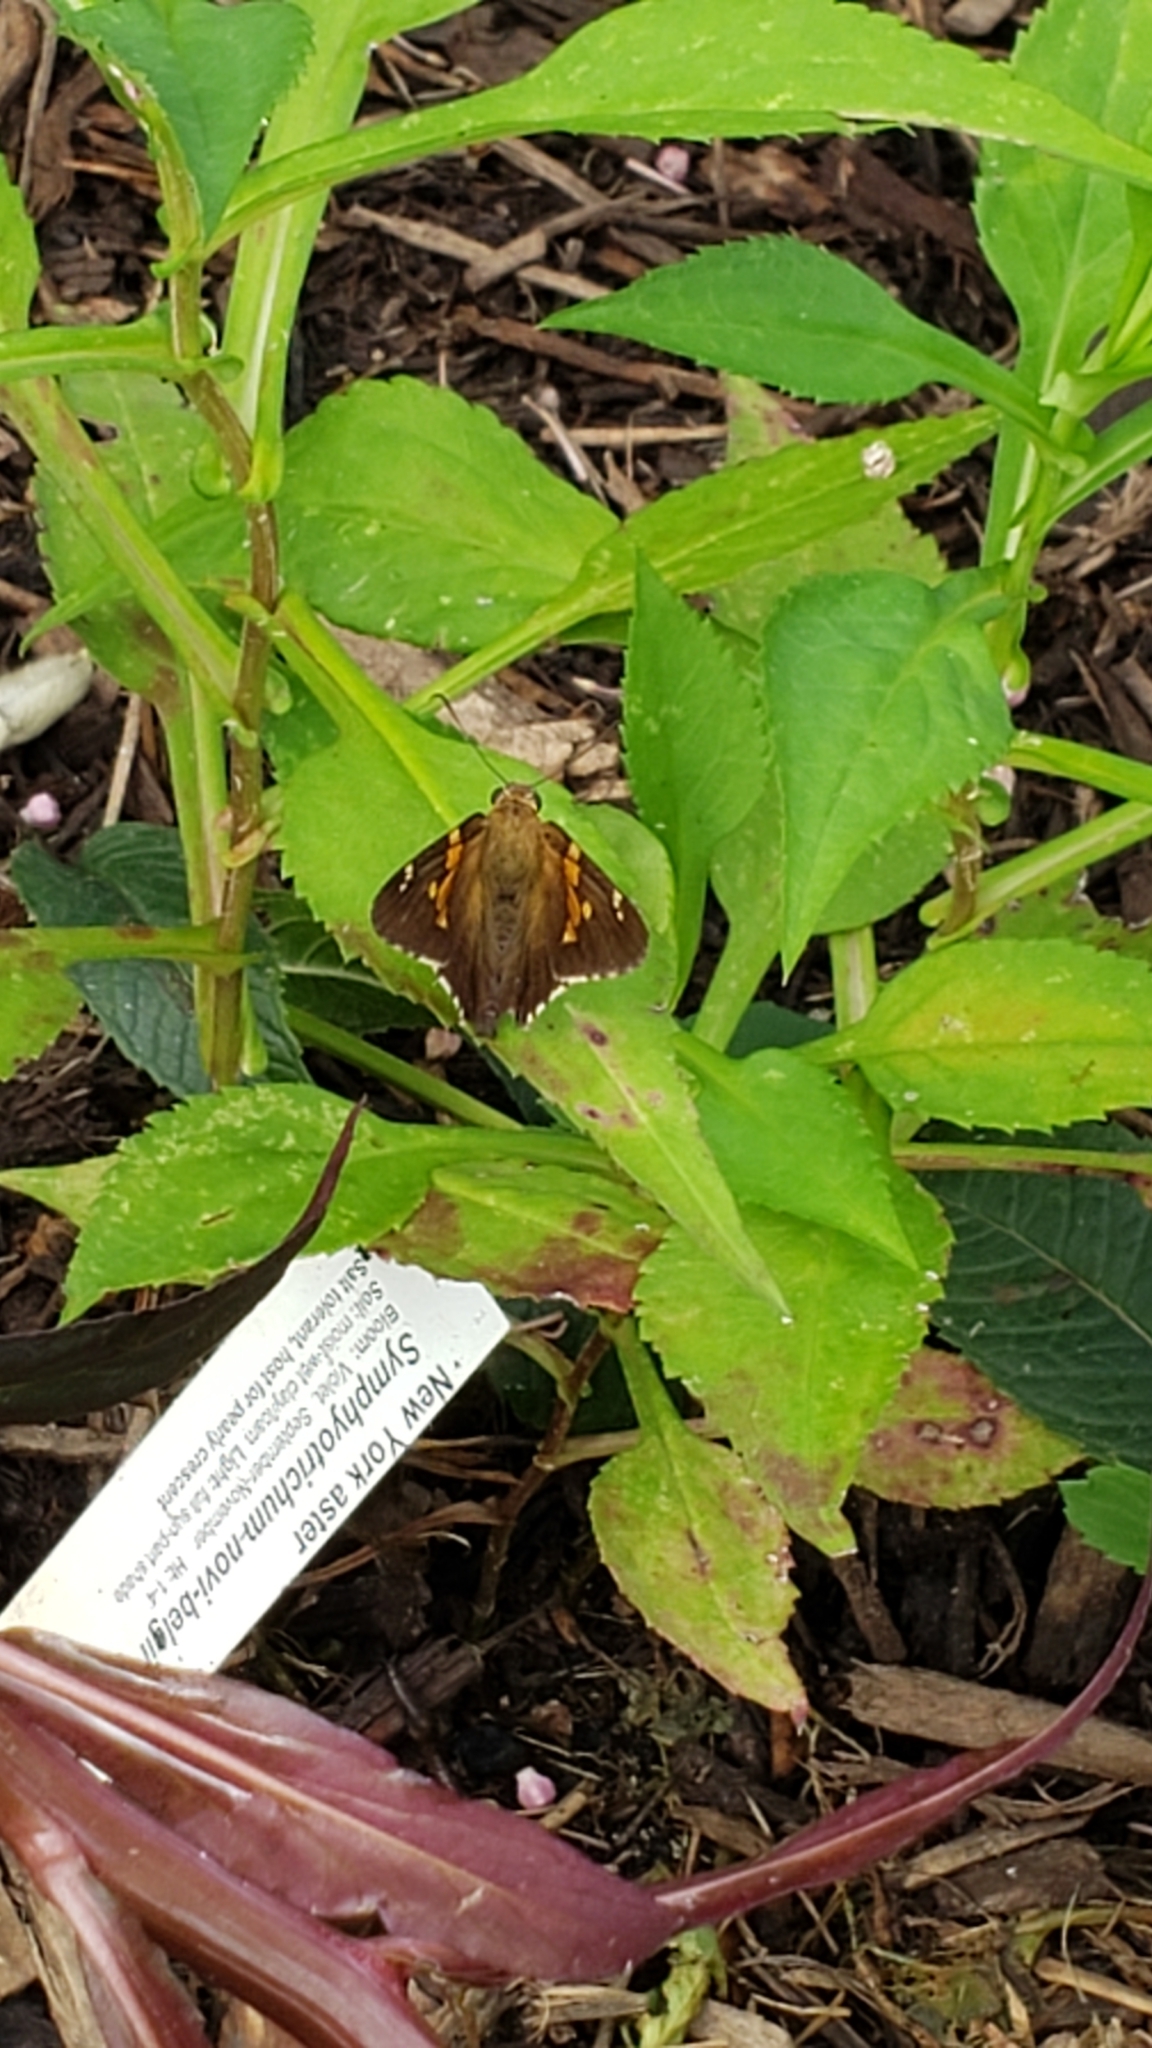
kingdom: Animalia
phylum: Arthropoda
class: Insecta
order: Lepidoptera
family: Hesperiidae
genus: Epargyreus
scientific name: Epargyreus clarus
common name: Silver-spotted skipper
